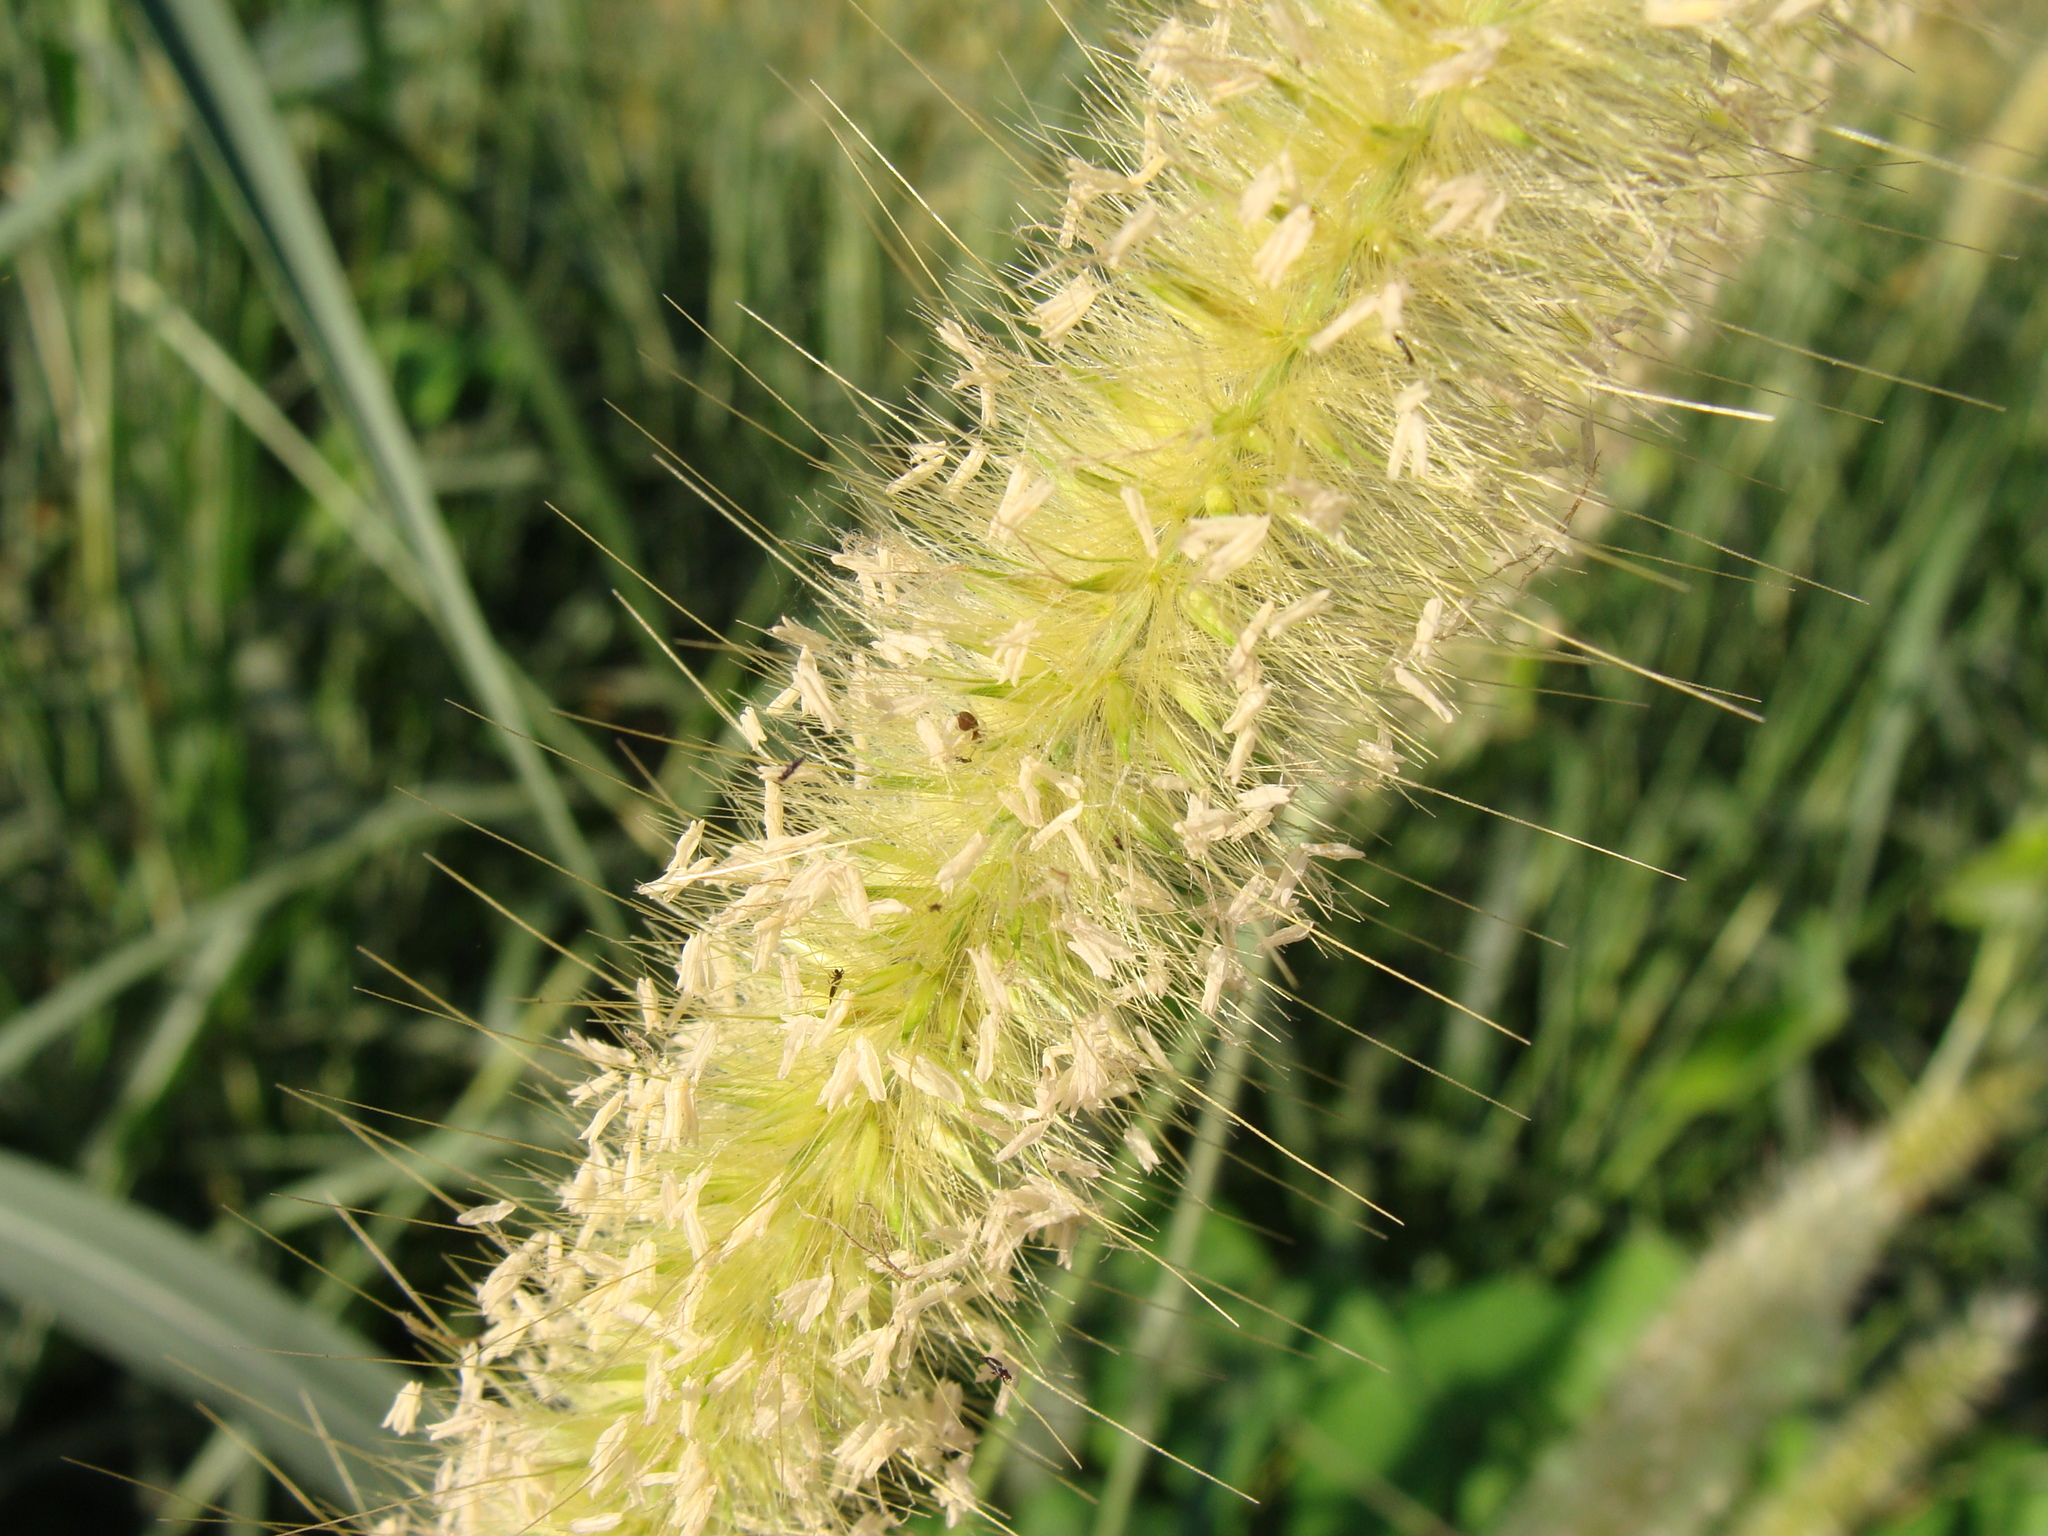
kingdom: Plantae
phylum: Tracheophyta
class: Liliopsida
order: Poales
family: Poaceae
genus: Cenchrus
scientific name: Cenchrus purpureus
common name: Elephant grass
